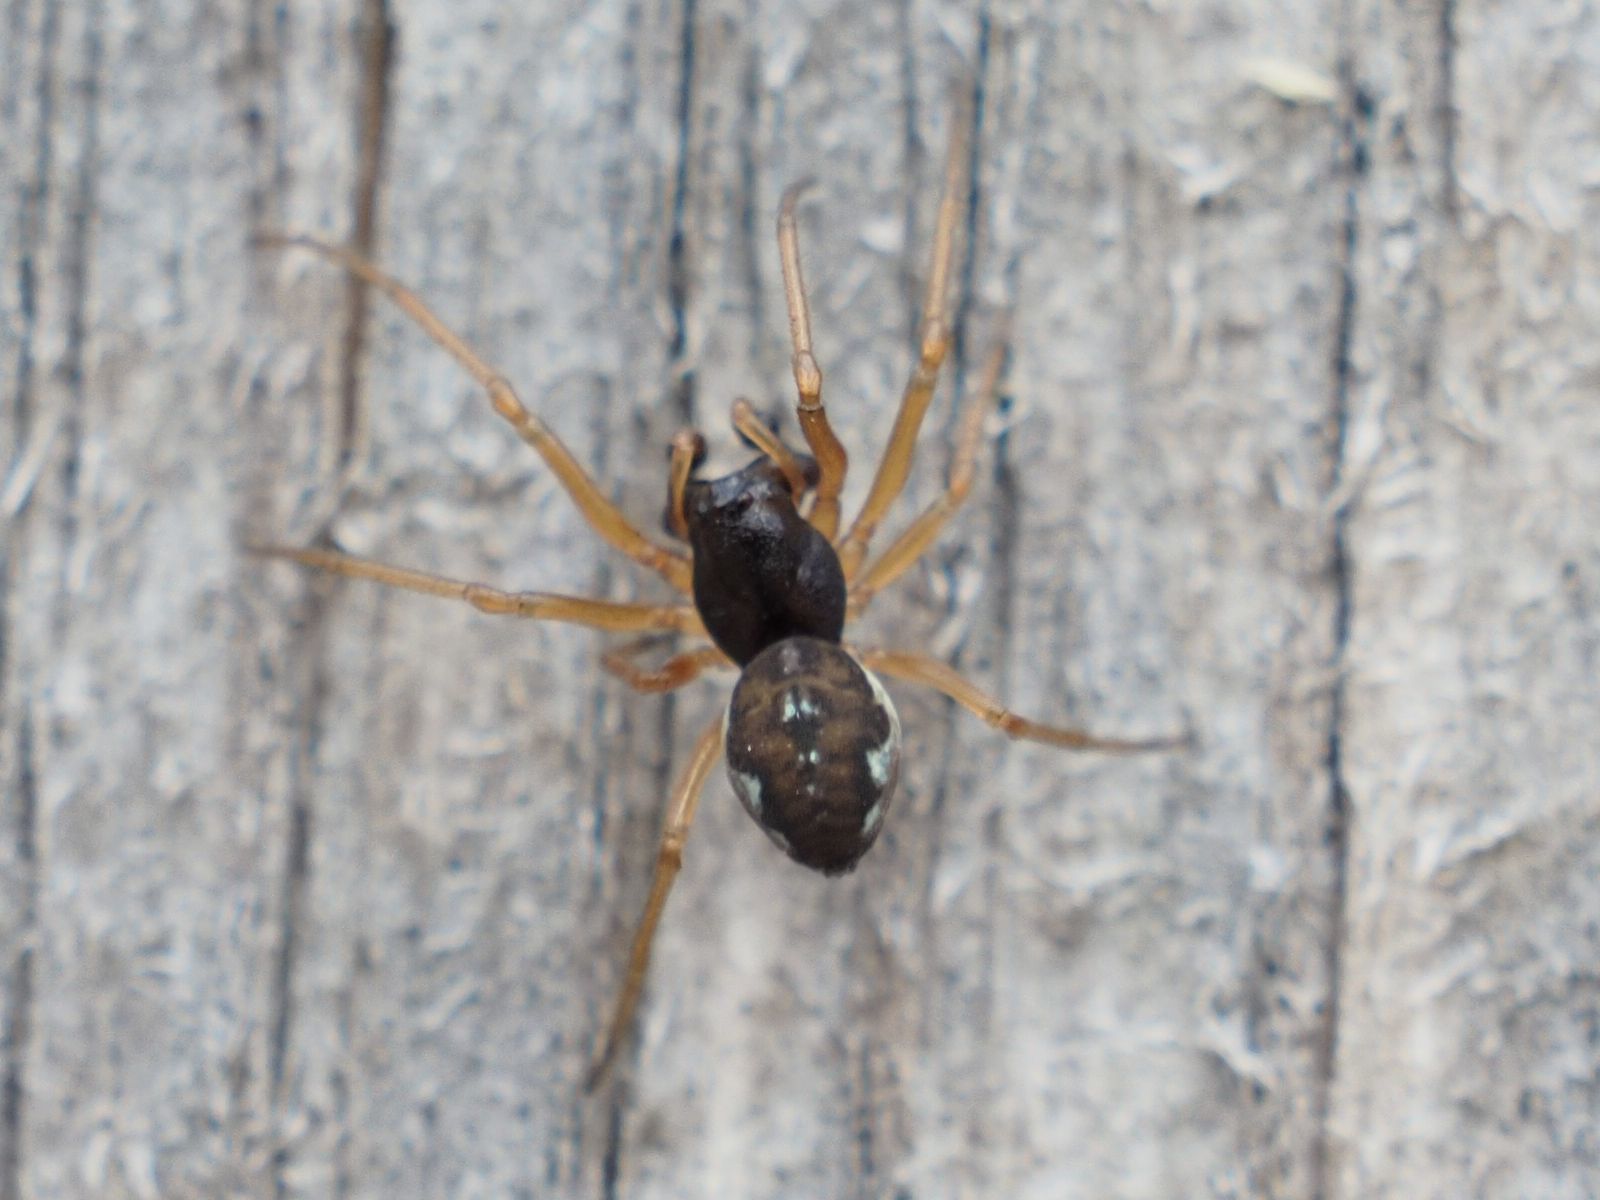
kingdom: Animalia
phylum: Arthropoda
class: Arachnida
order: Araneae
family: Tetragnathidae
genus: Pachygnatha
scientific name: Pachygnatha degeeri
